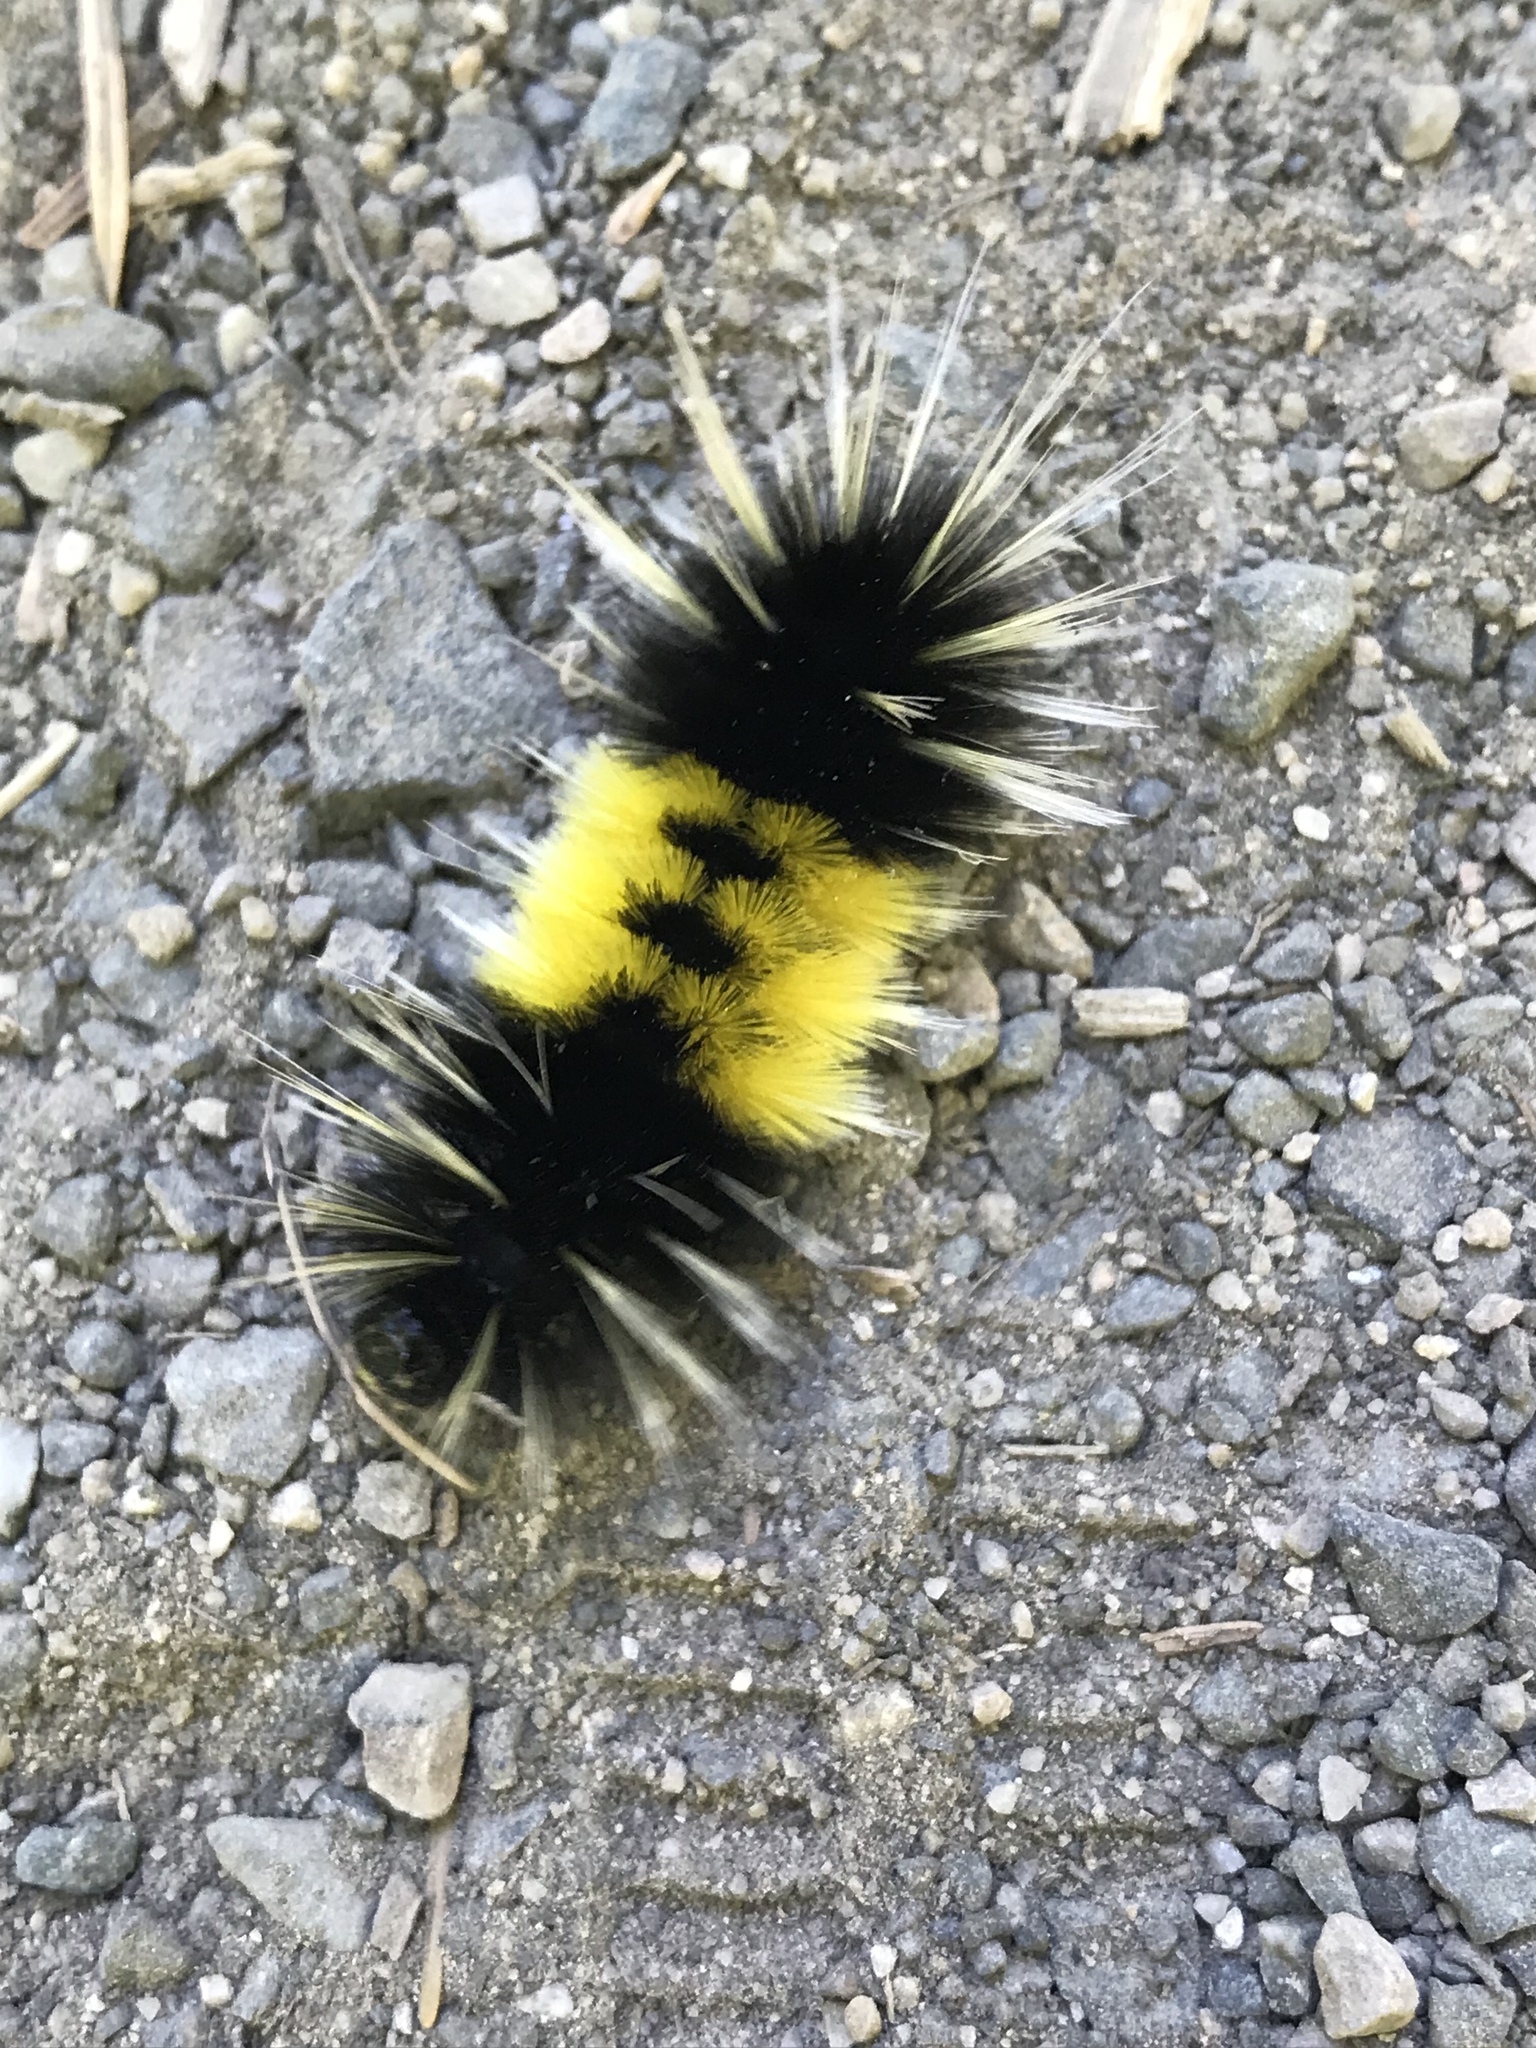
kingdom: Animalia
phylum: Arthropoda
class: Insecta
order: Lepidoptera
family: Erebidae
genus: Lophocampa
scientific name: Lophocampa maculata
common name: Spotted tussock moth
